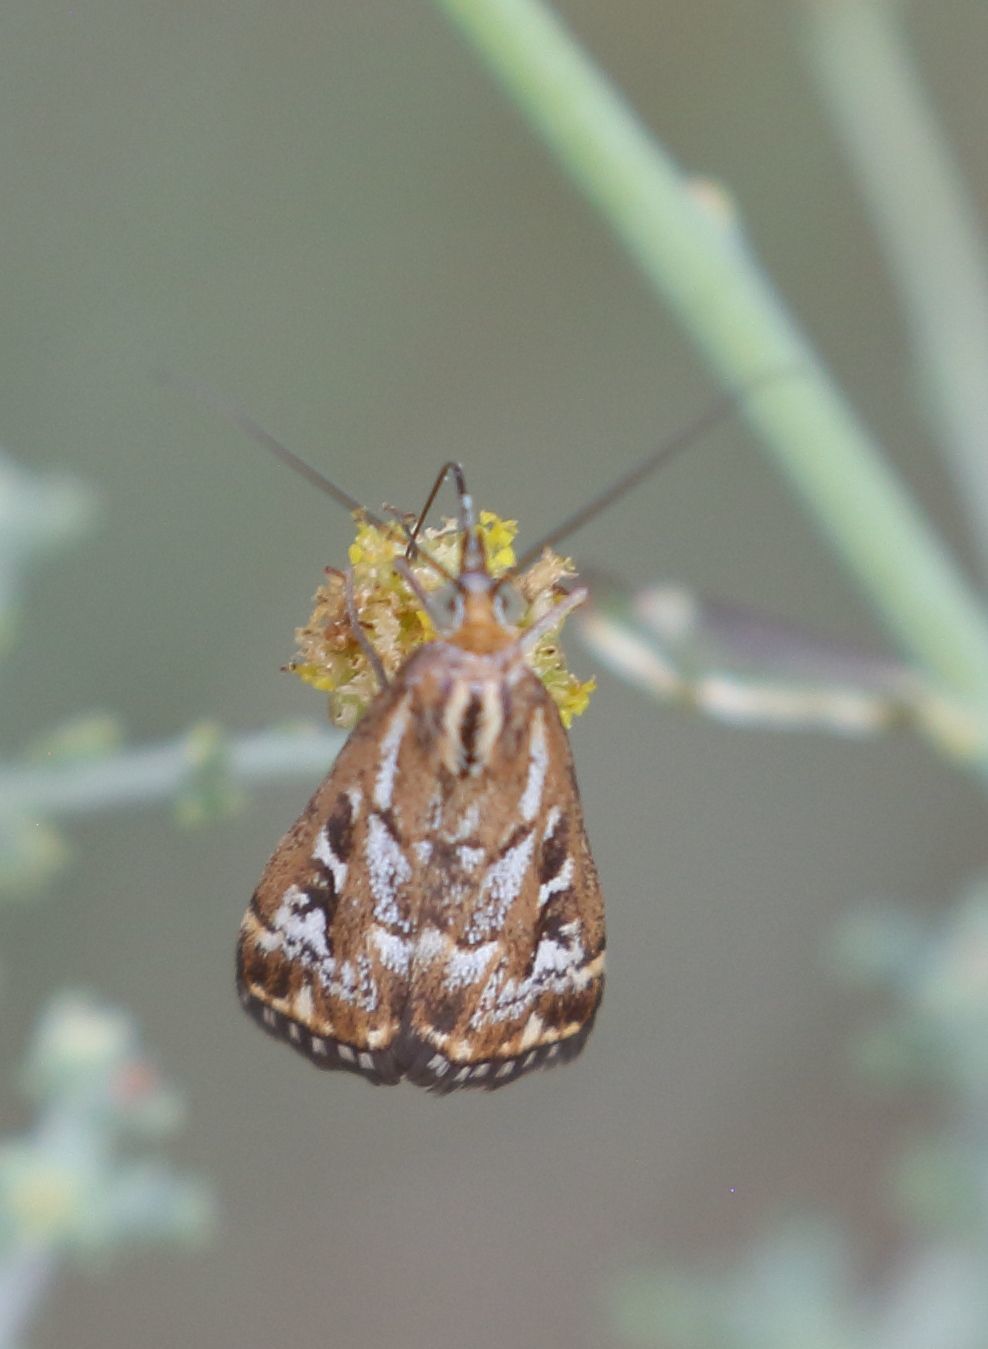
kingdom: Animalia
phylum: Arthropoda
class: Insecta
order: Lepidoptera
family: Crambidae
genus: Loxostege
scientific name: Loxostege frustalis
